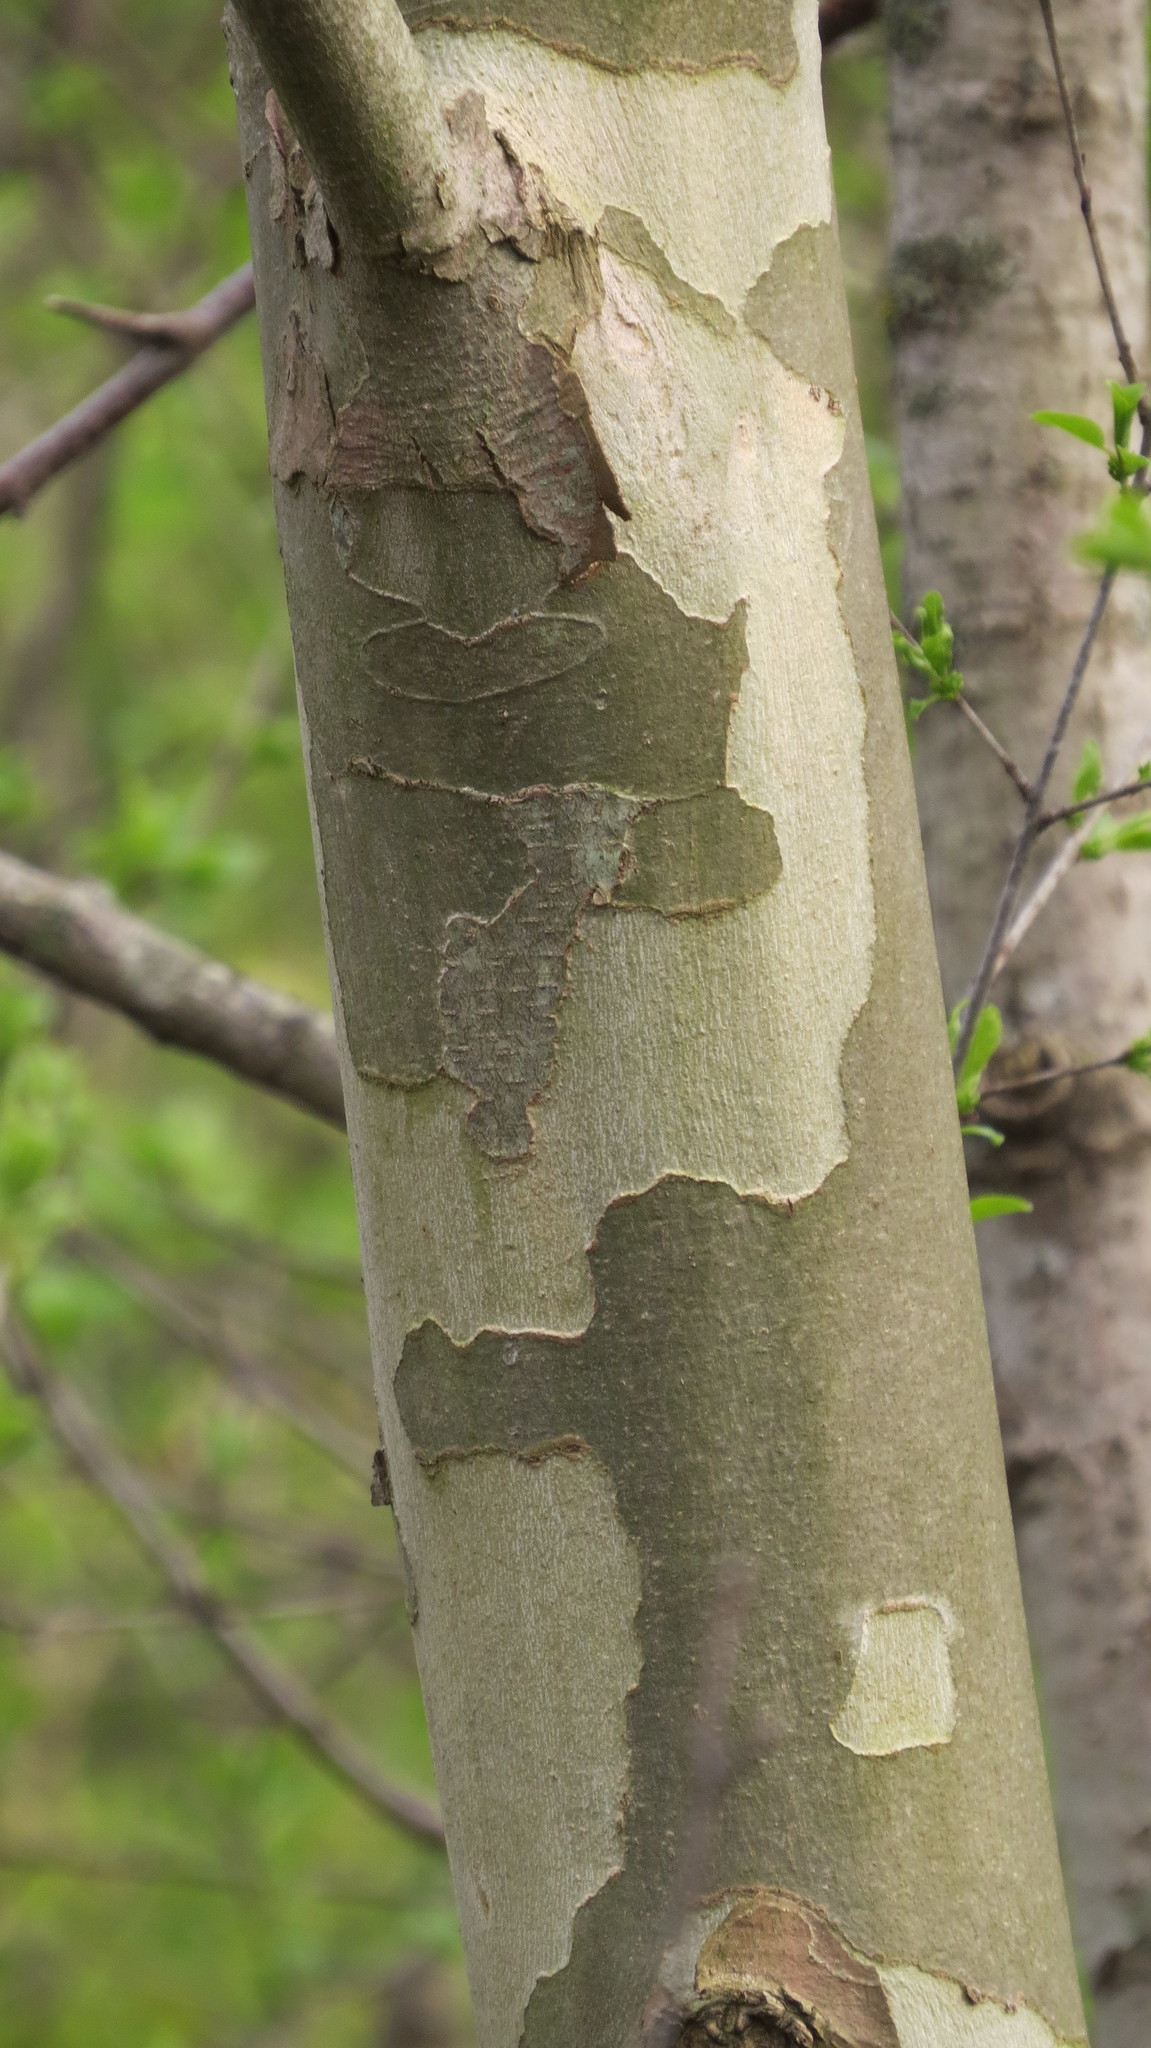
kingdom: Plantae
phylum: Tracheophyta
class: Magnoliopsida
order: Proteales
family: Platanaceae
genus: Platanus
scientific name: Platanus occidentalis
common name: American sycamore
